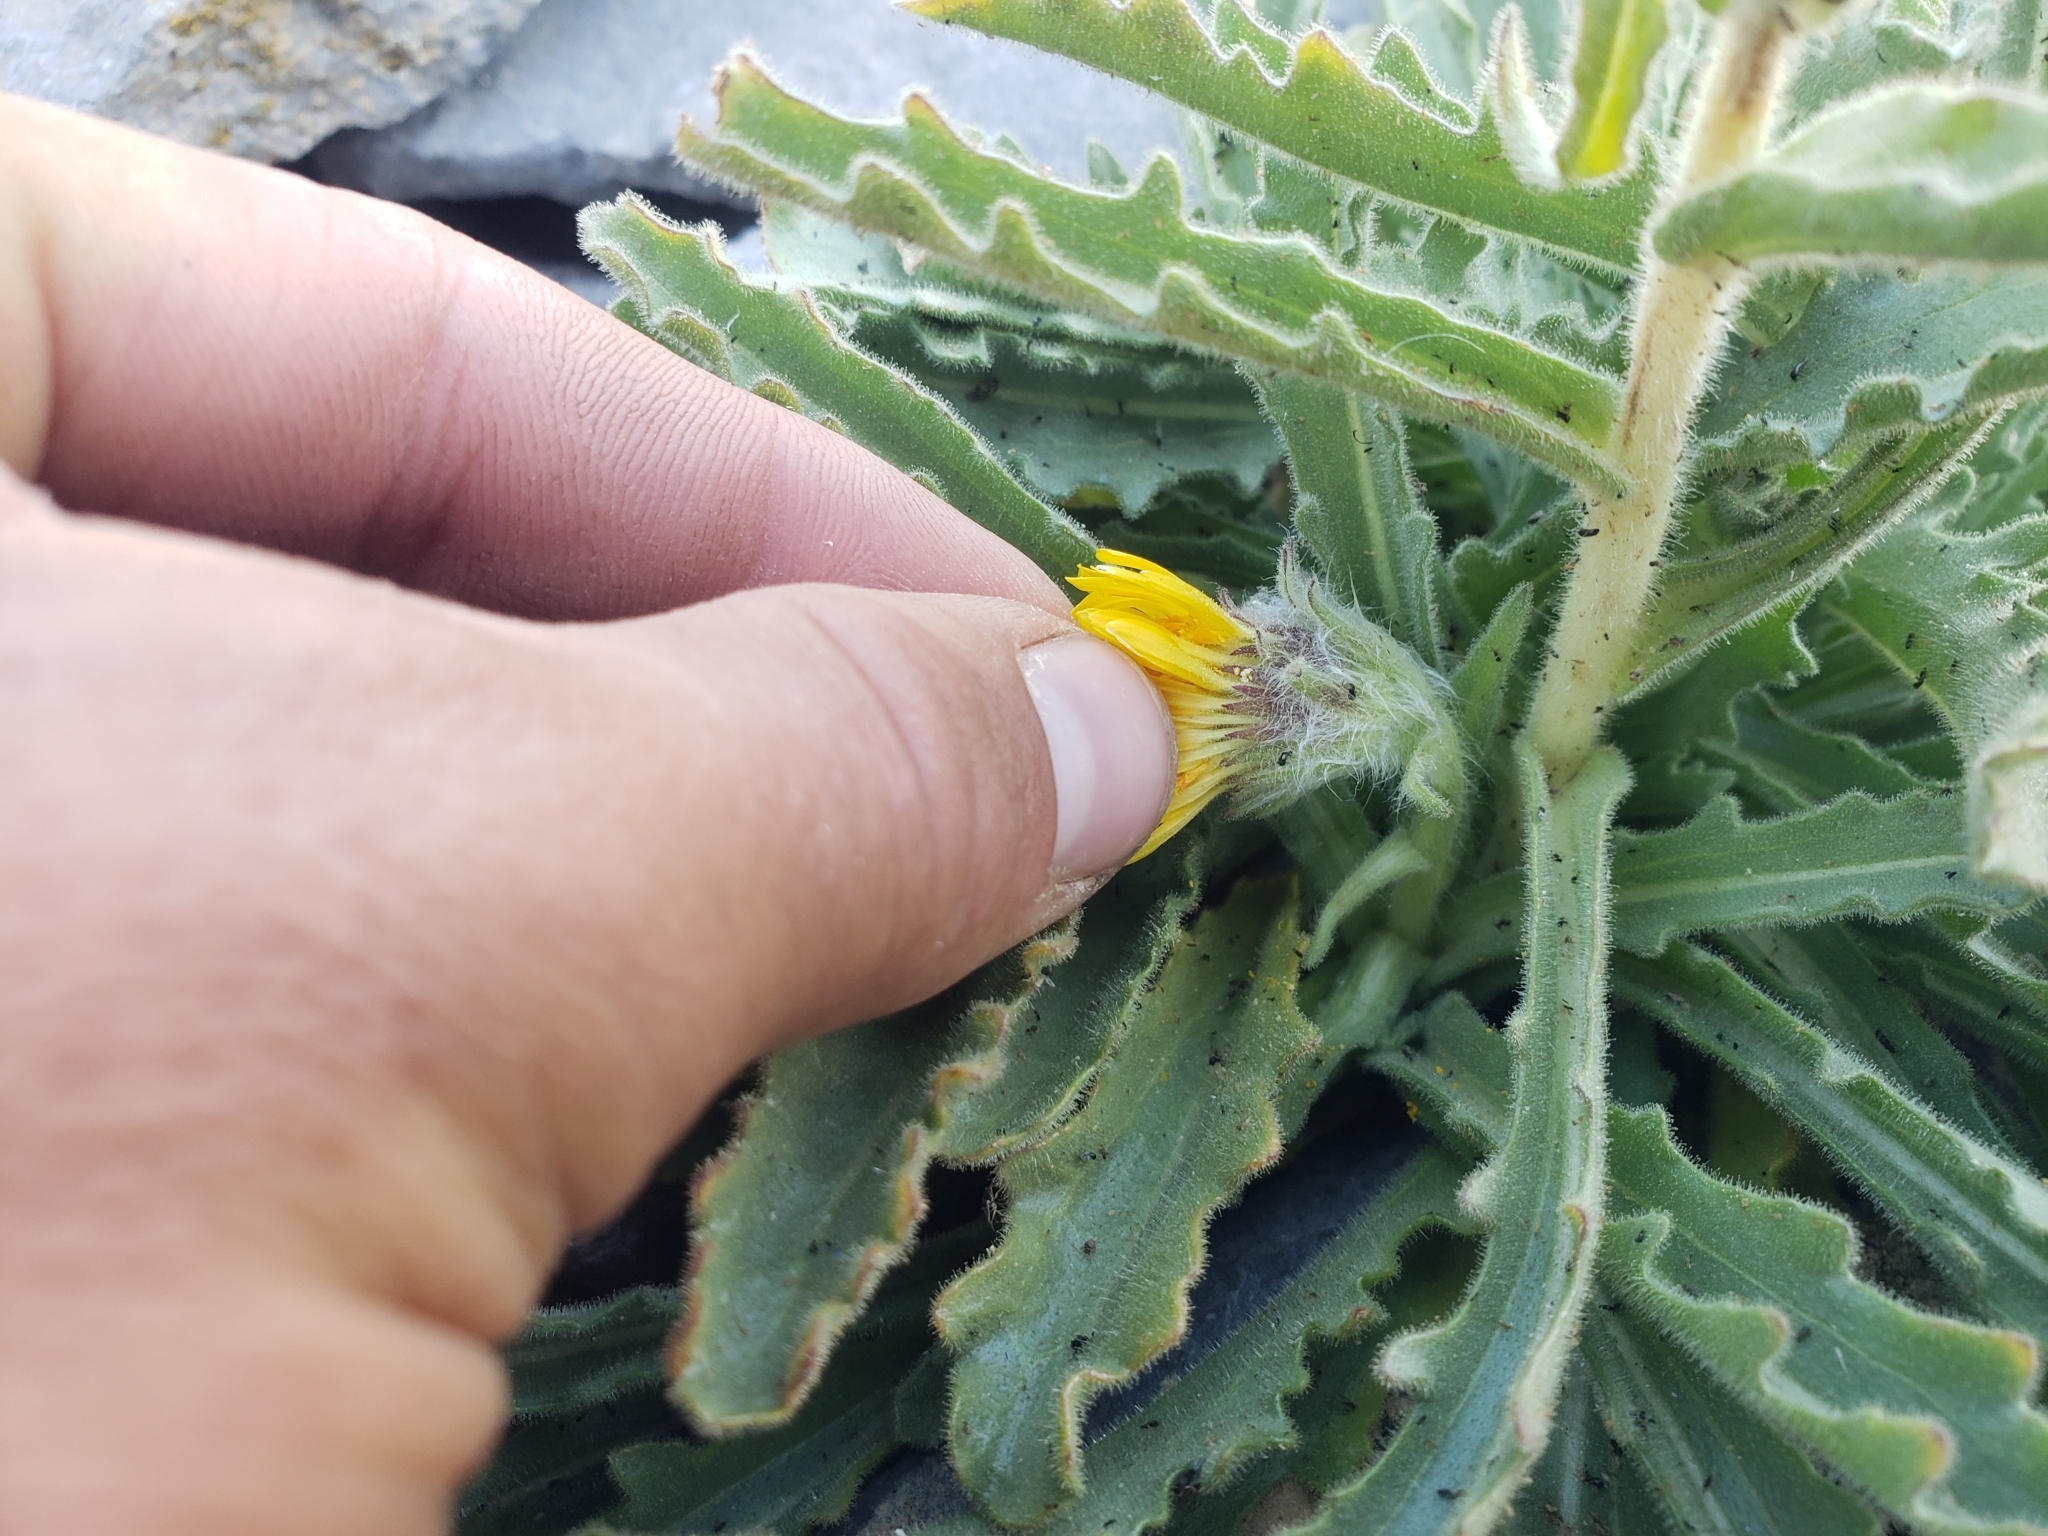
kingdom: Plantae
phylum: Tracheophyta
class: Magnoliopsida
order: Asterales
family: Asteraceae
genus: Hulsea
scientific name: Hulsea algida
